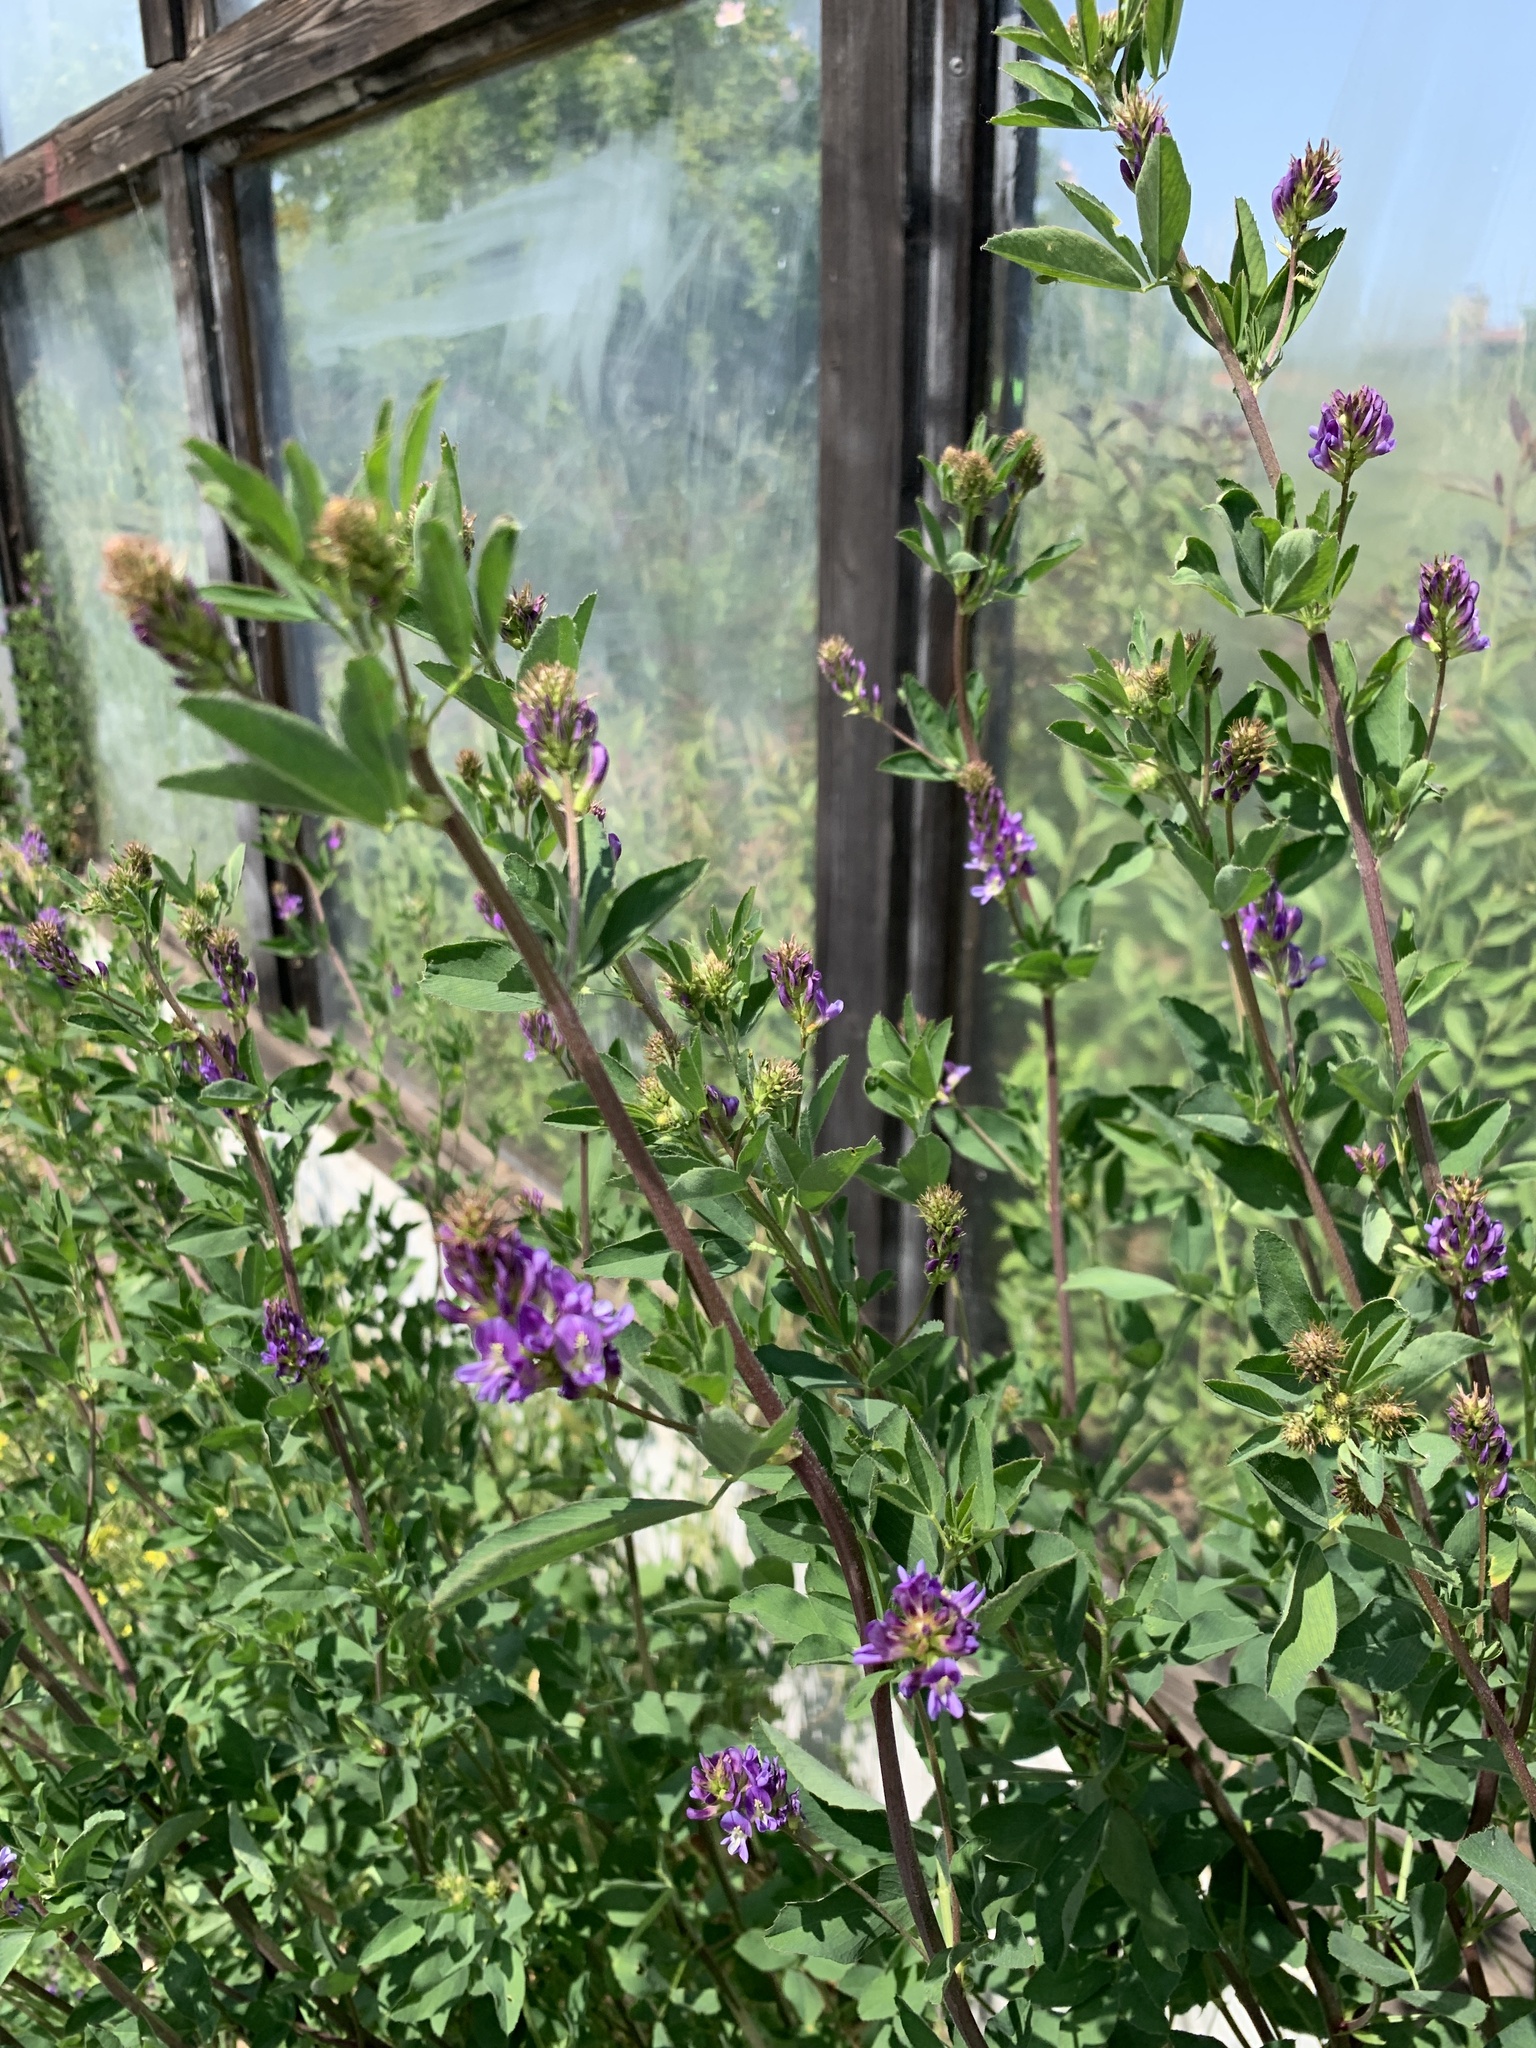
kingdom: Plantae
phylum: Tracheophyta
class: Magnoliopsida
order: Fabales
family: Fabaceae
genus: Medicago
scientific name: Medicago sativa
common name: Alfalfa
